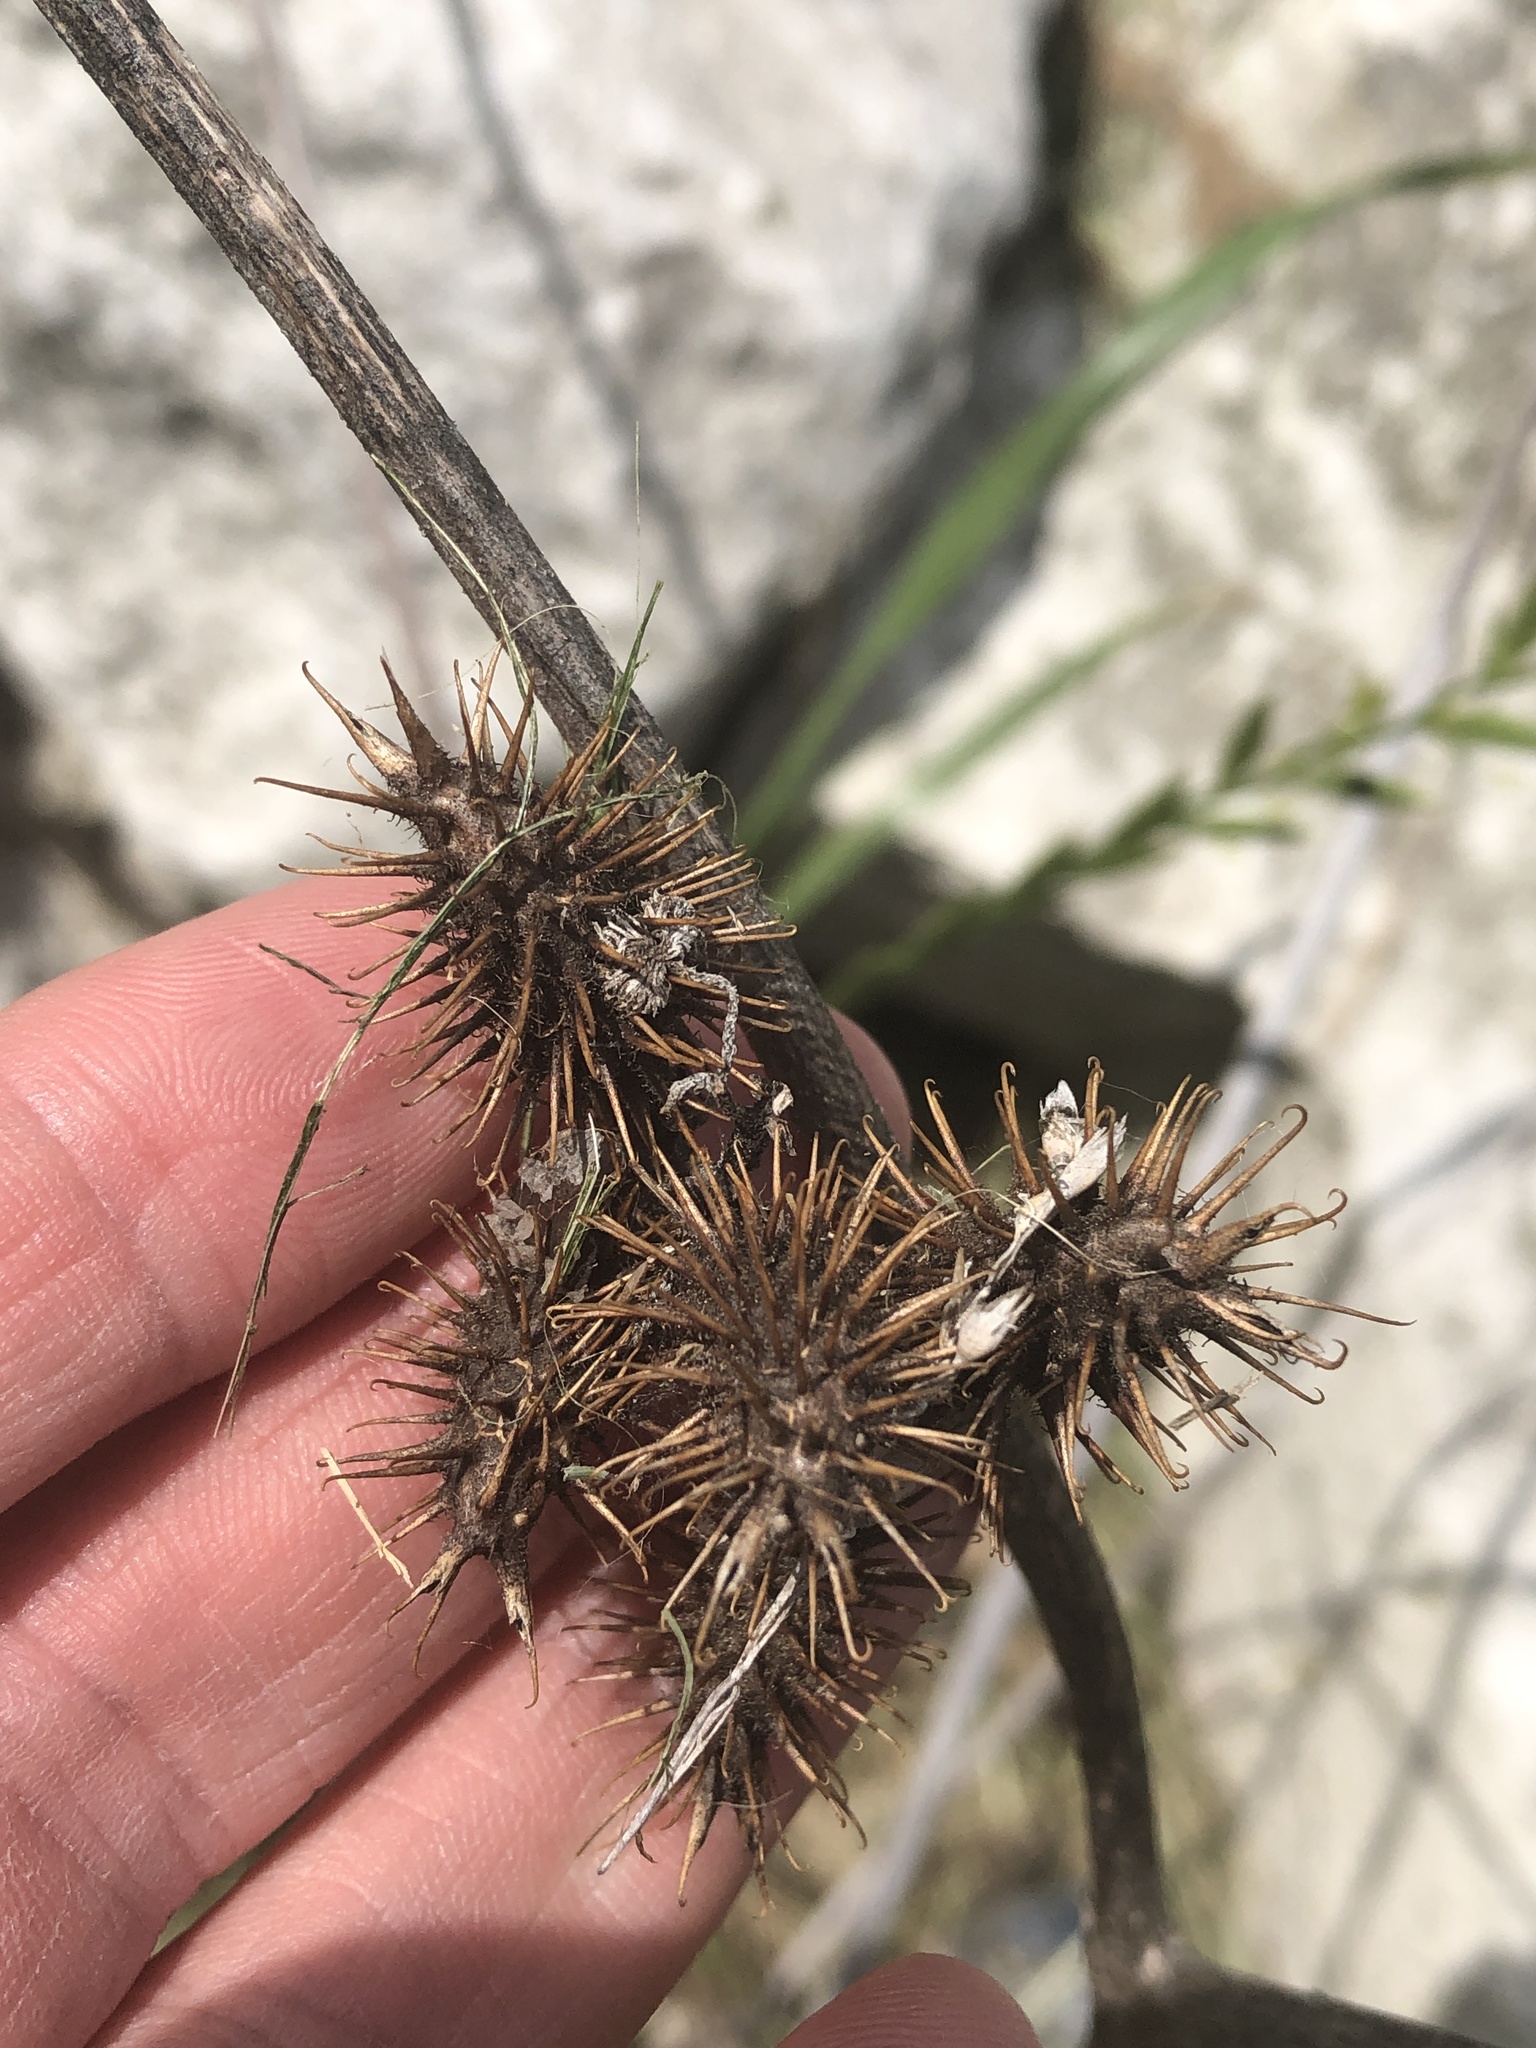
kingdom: Plantae
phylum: Tracheophyta
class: Magnoliopsida
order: Asterales
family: Asteraceae
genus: Xanthium
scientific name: Xanthium strumarium
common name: Rough cocklebur
